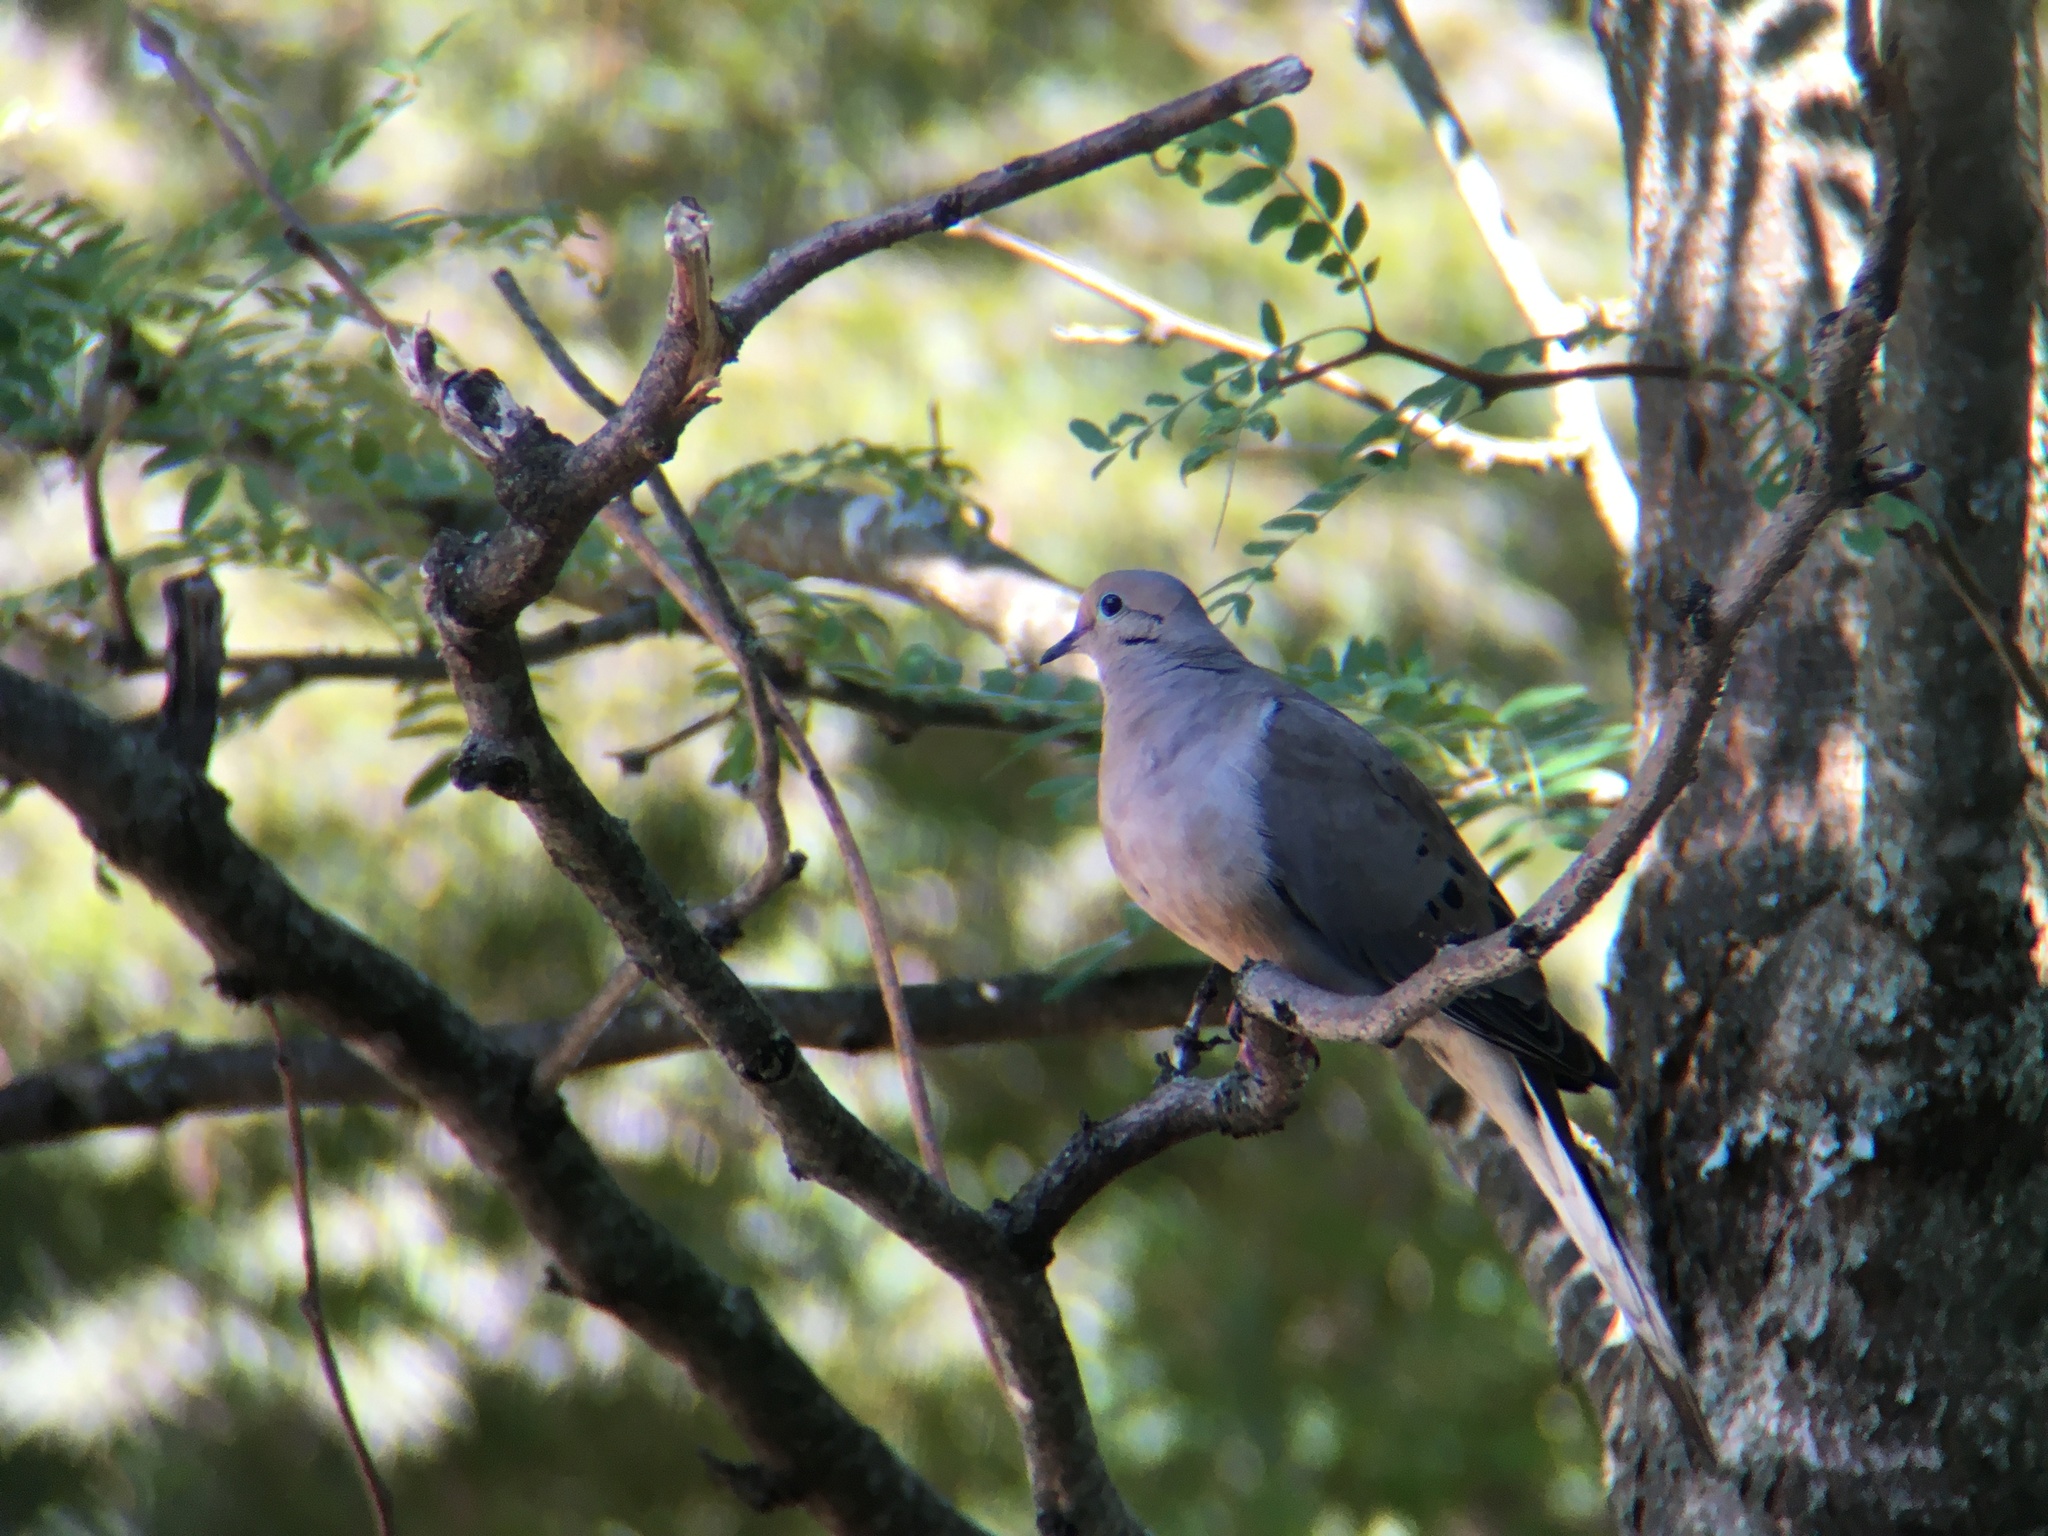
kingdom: Animalia
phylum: Chordata
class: Aves
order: Columbiformes
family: Columbidae
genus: Zenaida
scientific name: Zenaida macroura
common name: Mourning dove
